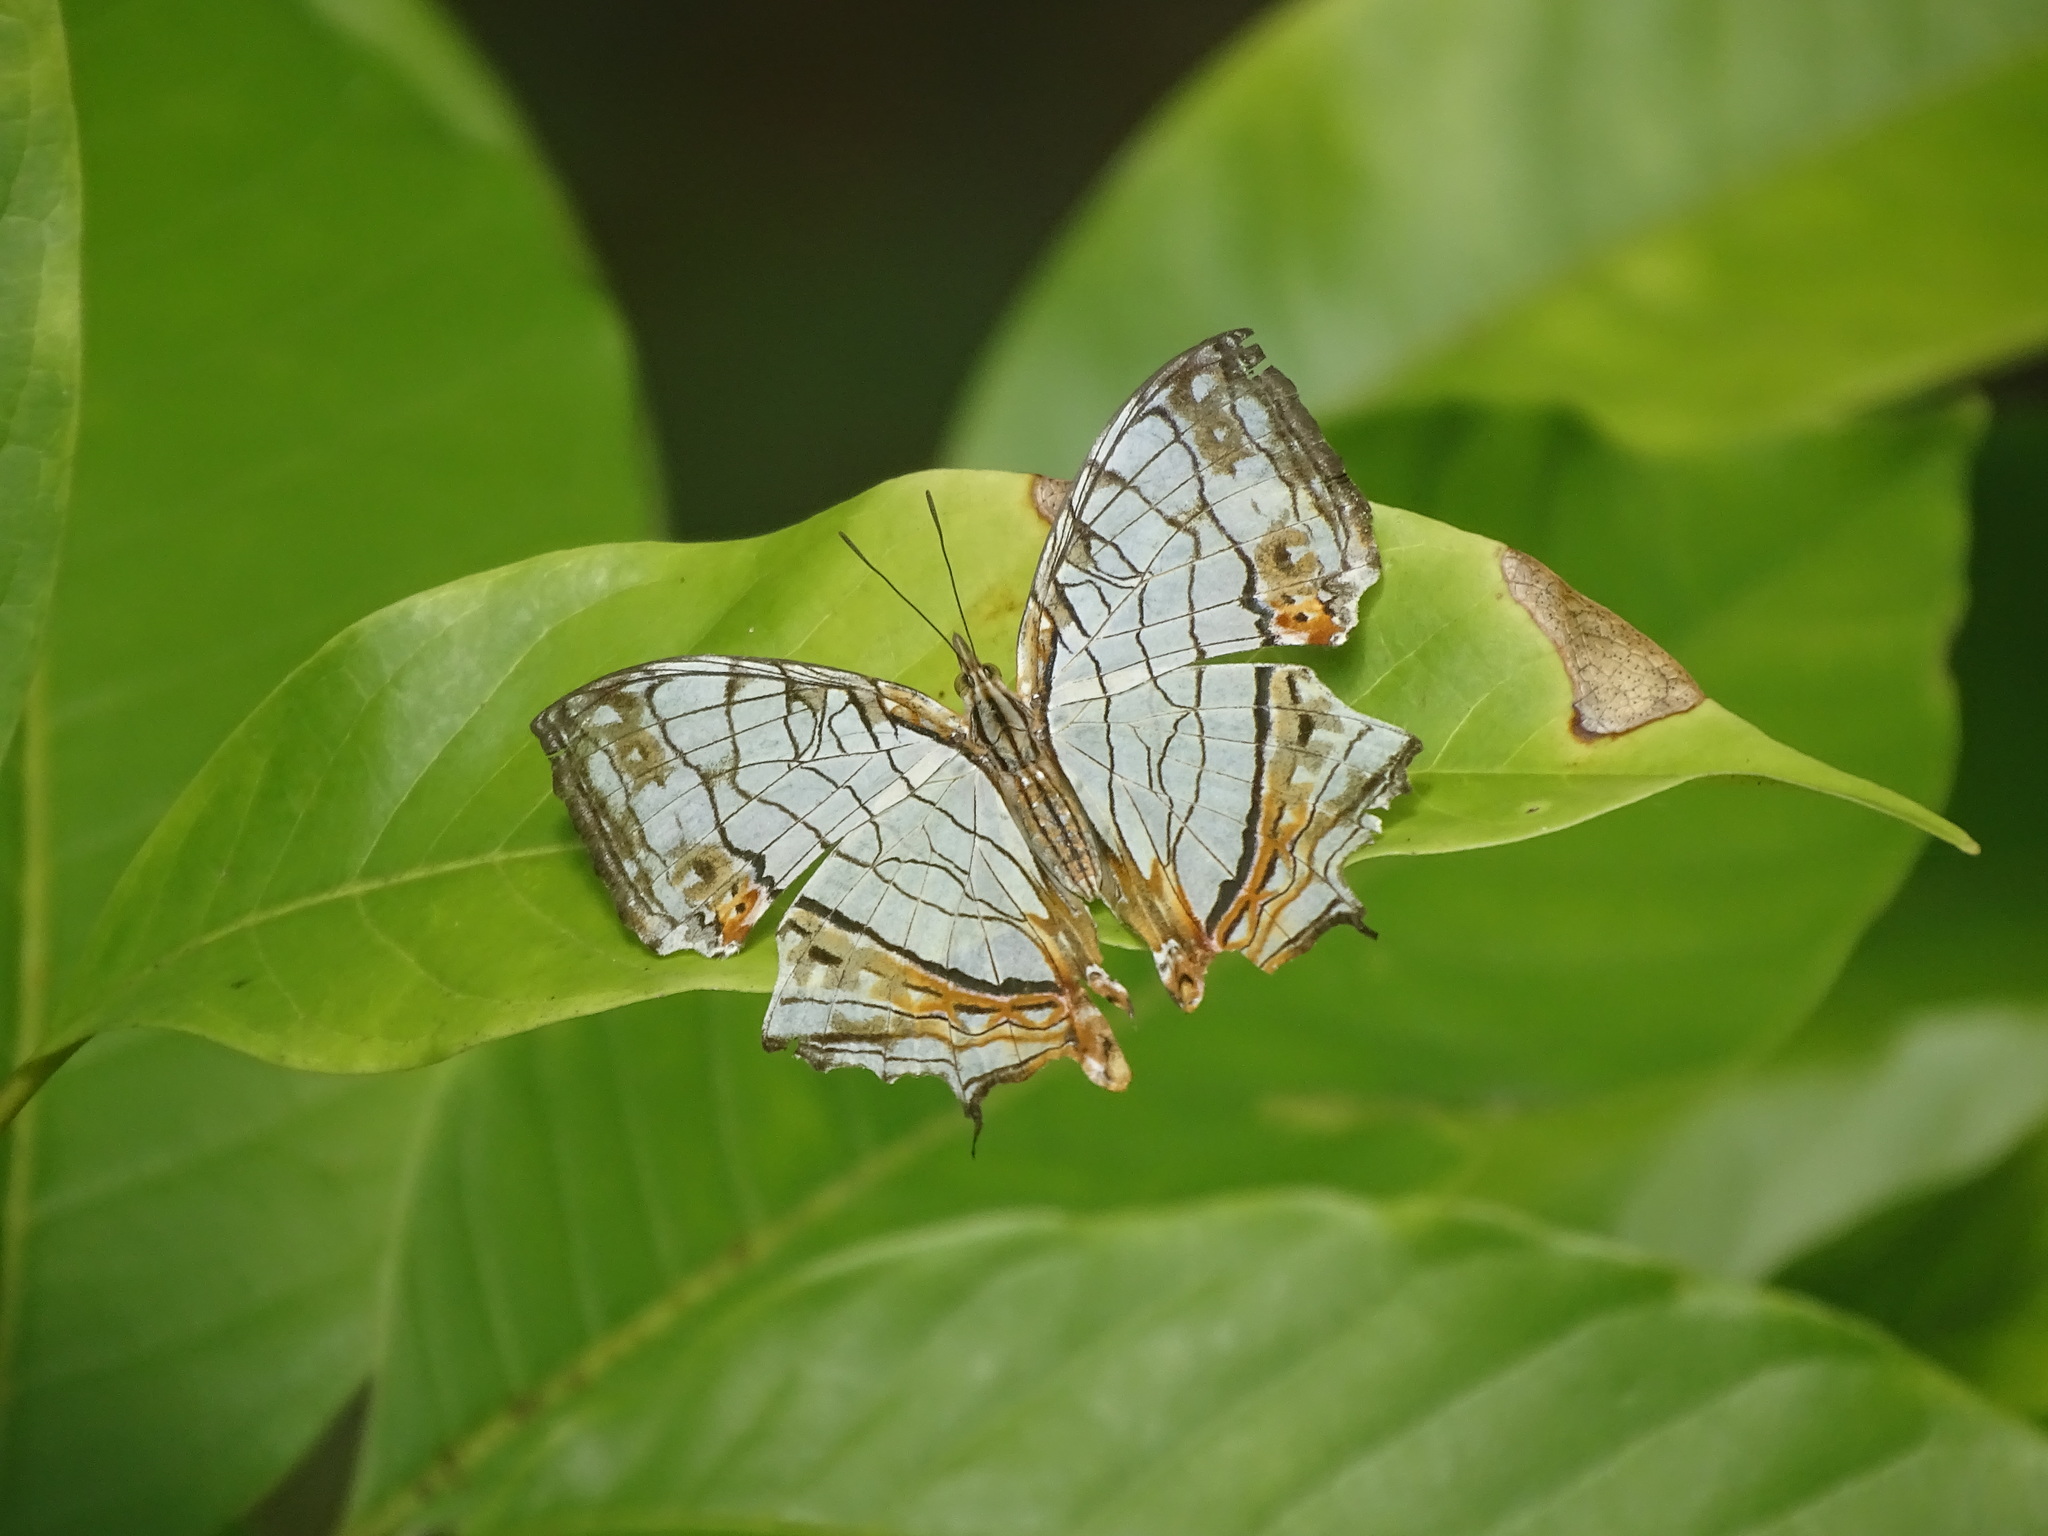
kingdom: Animalia
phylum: Arthropoda
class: Insecta
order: Lepidoptera
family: Nymphalidae
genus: Cyrestis
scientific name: Cyrestis thyodamas
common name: Common mapwing
